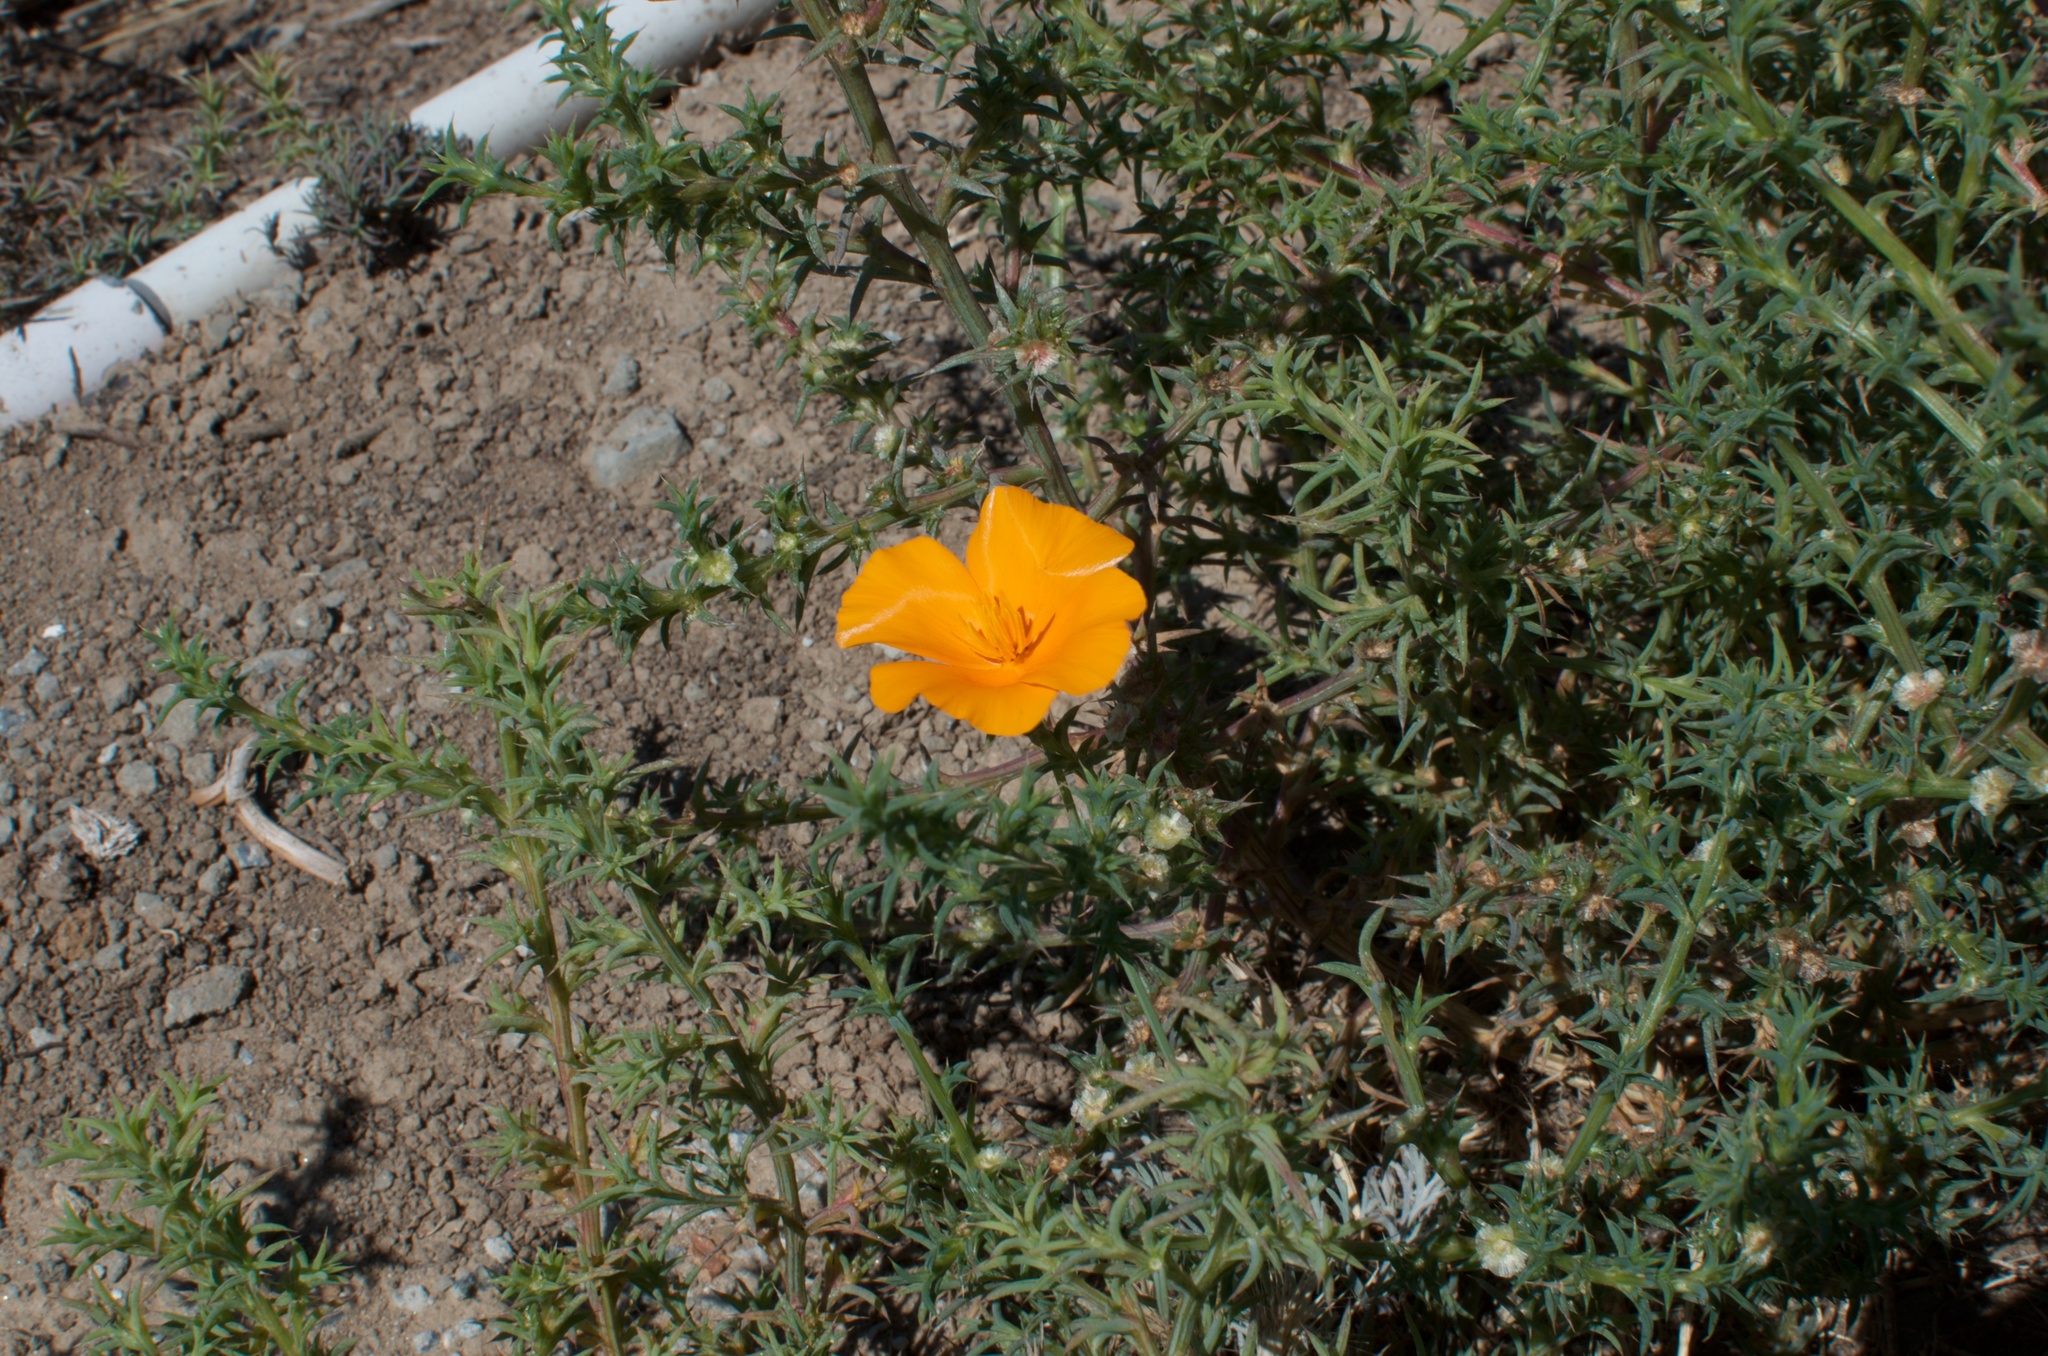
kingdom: Plantae
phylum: Tracheophyta
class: Magnoliopsida
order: Ranunculales
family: Papaveraceae
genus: Eschscholzia
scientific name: Eschscholzia californica
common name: California poppy
